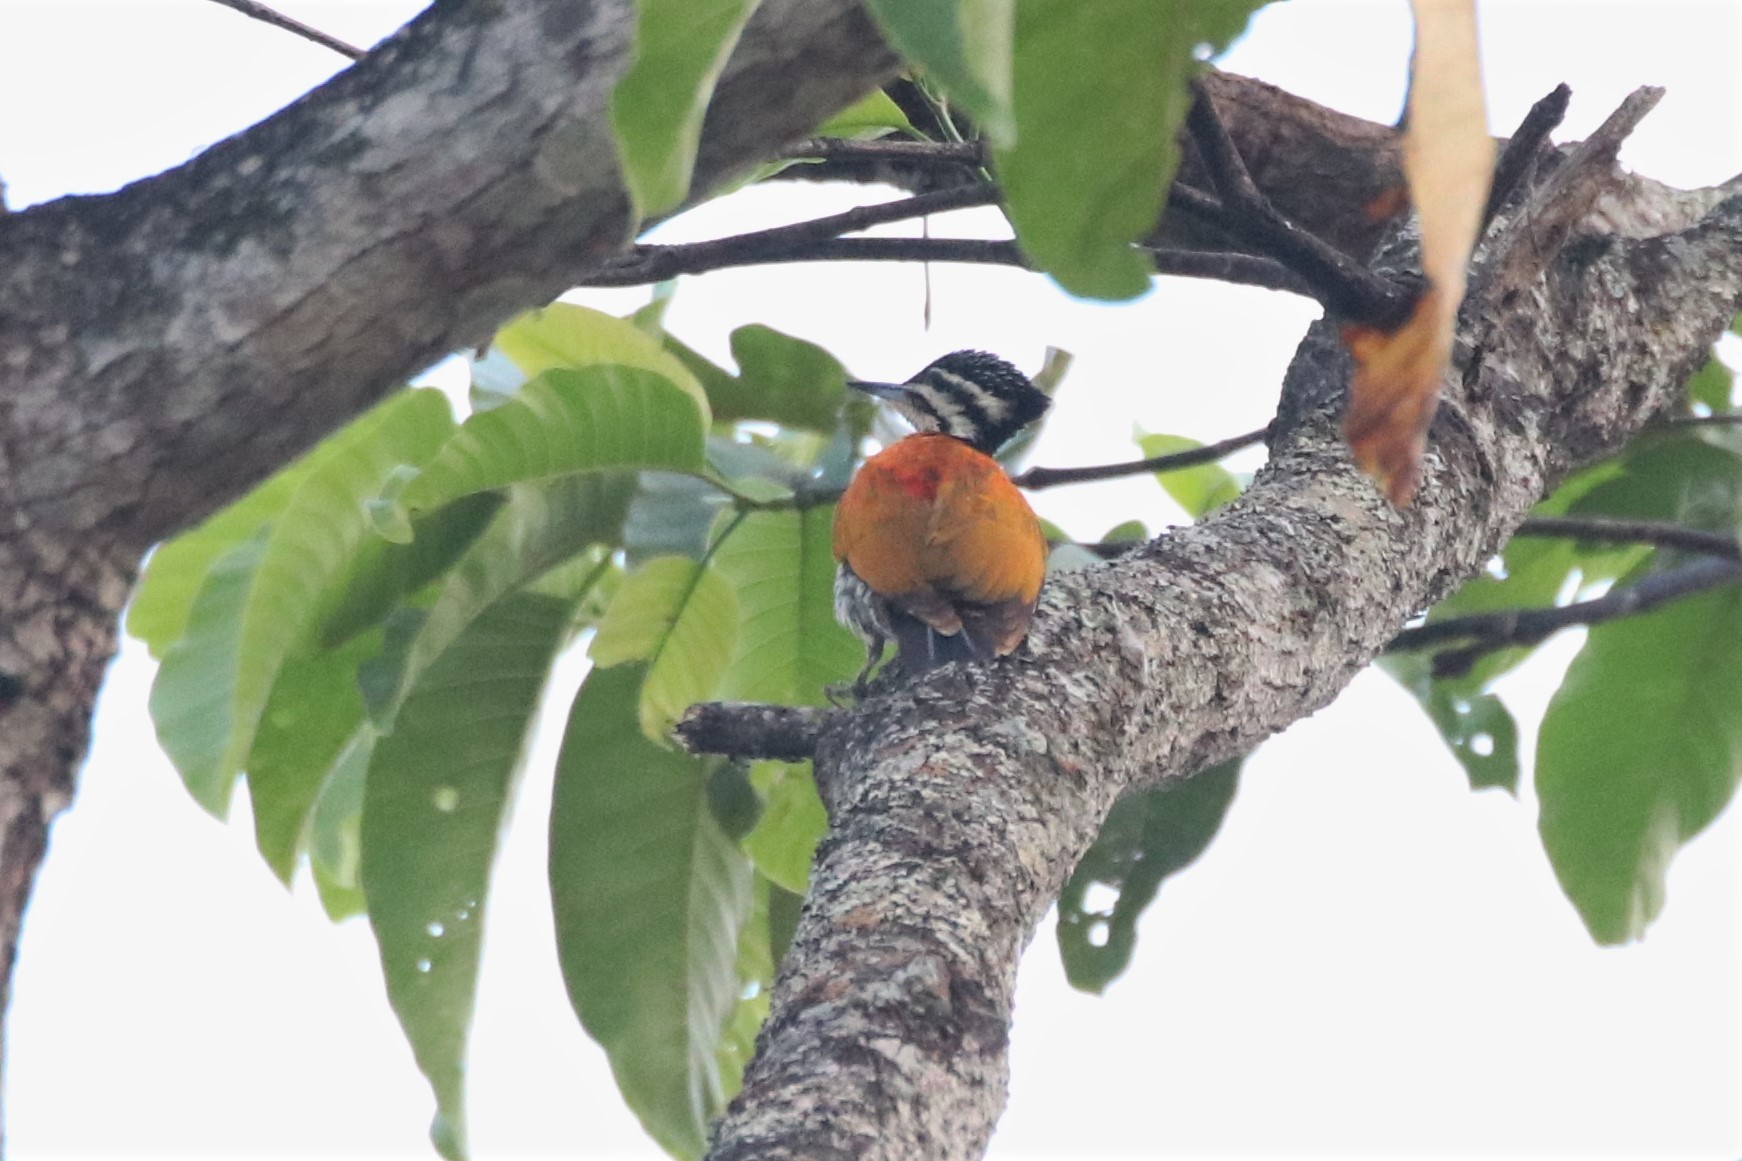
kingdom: Animalia
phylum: Chordata
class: Aves
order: Piciformes
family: Picidae
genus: Dinopium
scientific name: Dinopium javanense
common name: Common flameback
